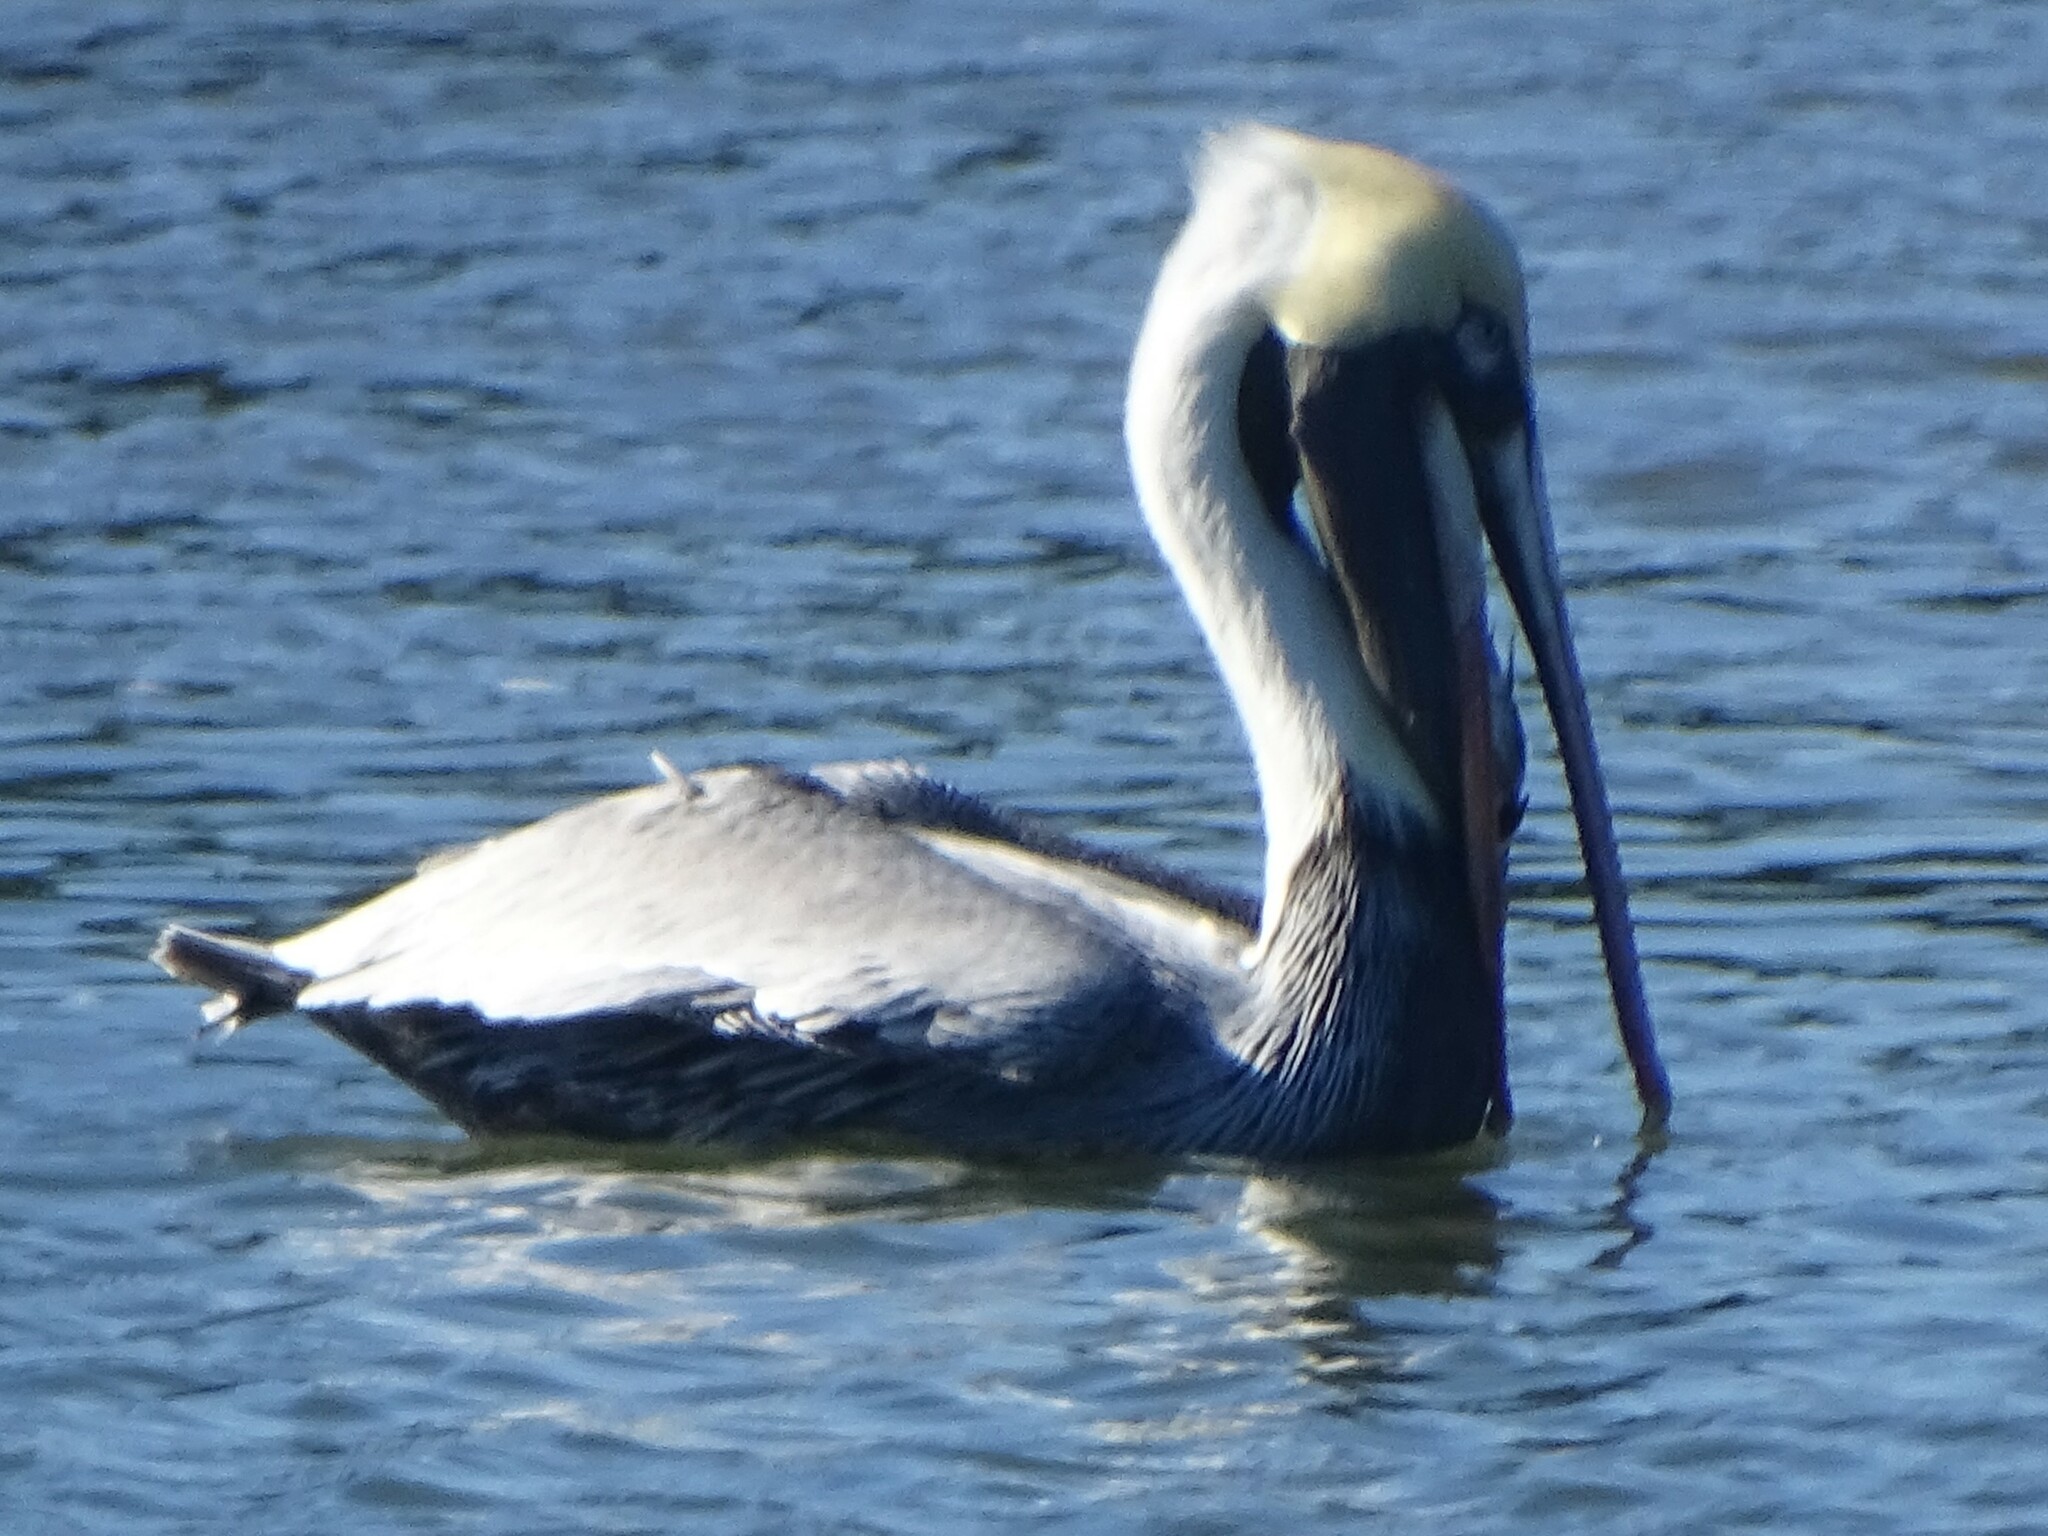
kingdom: Animalia
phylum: Chordata
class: Aves
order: Pelecaniformes
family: Pelecanidae
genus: Pelecanus
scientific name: Pelecanus occidentalis
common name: Brown pelican
